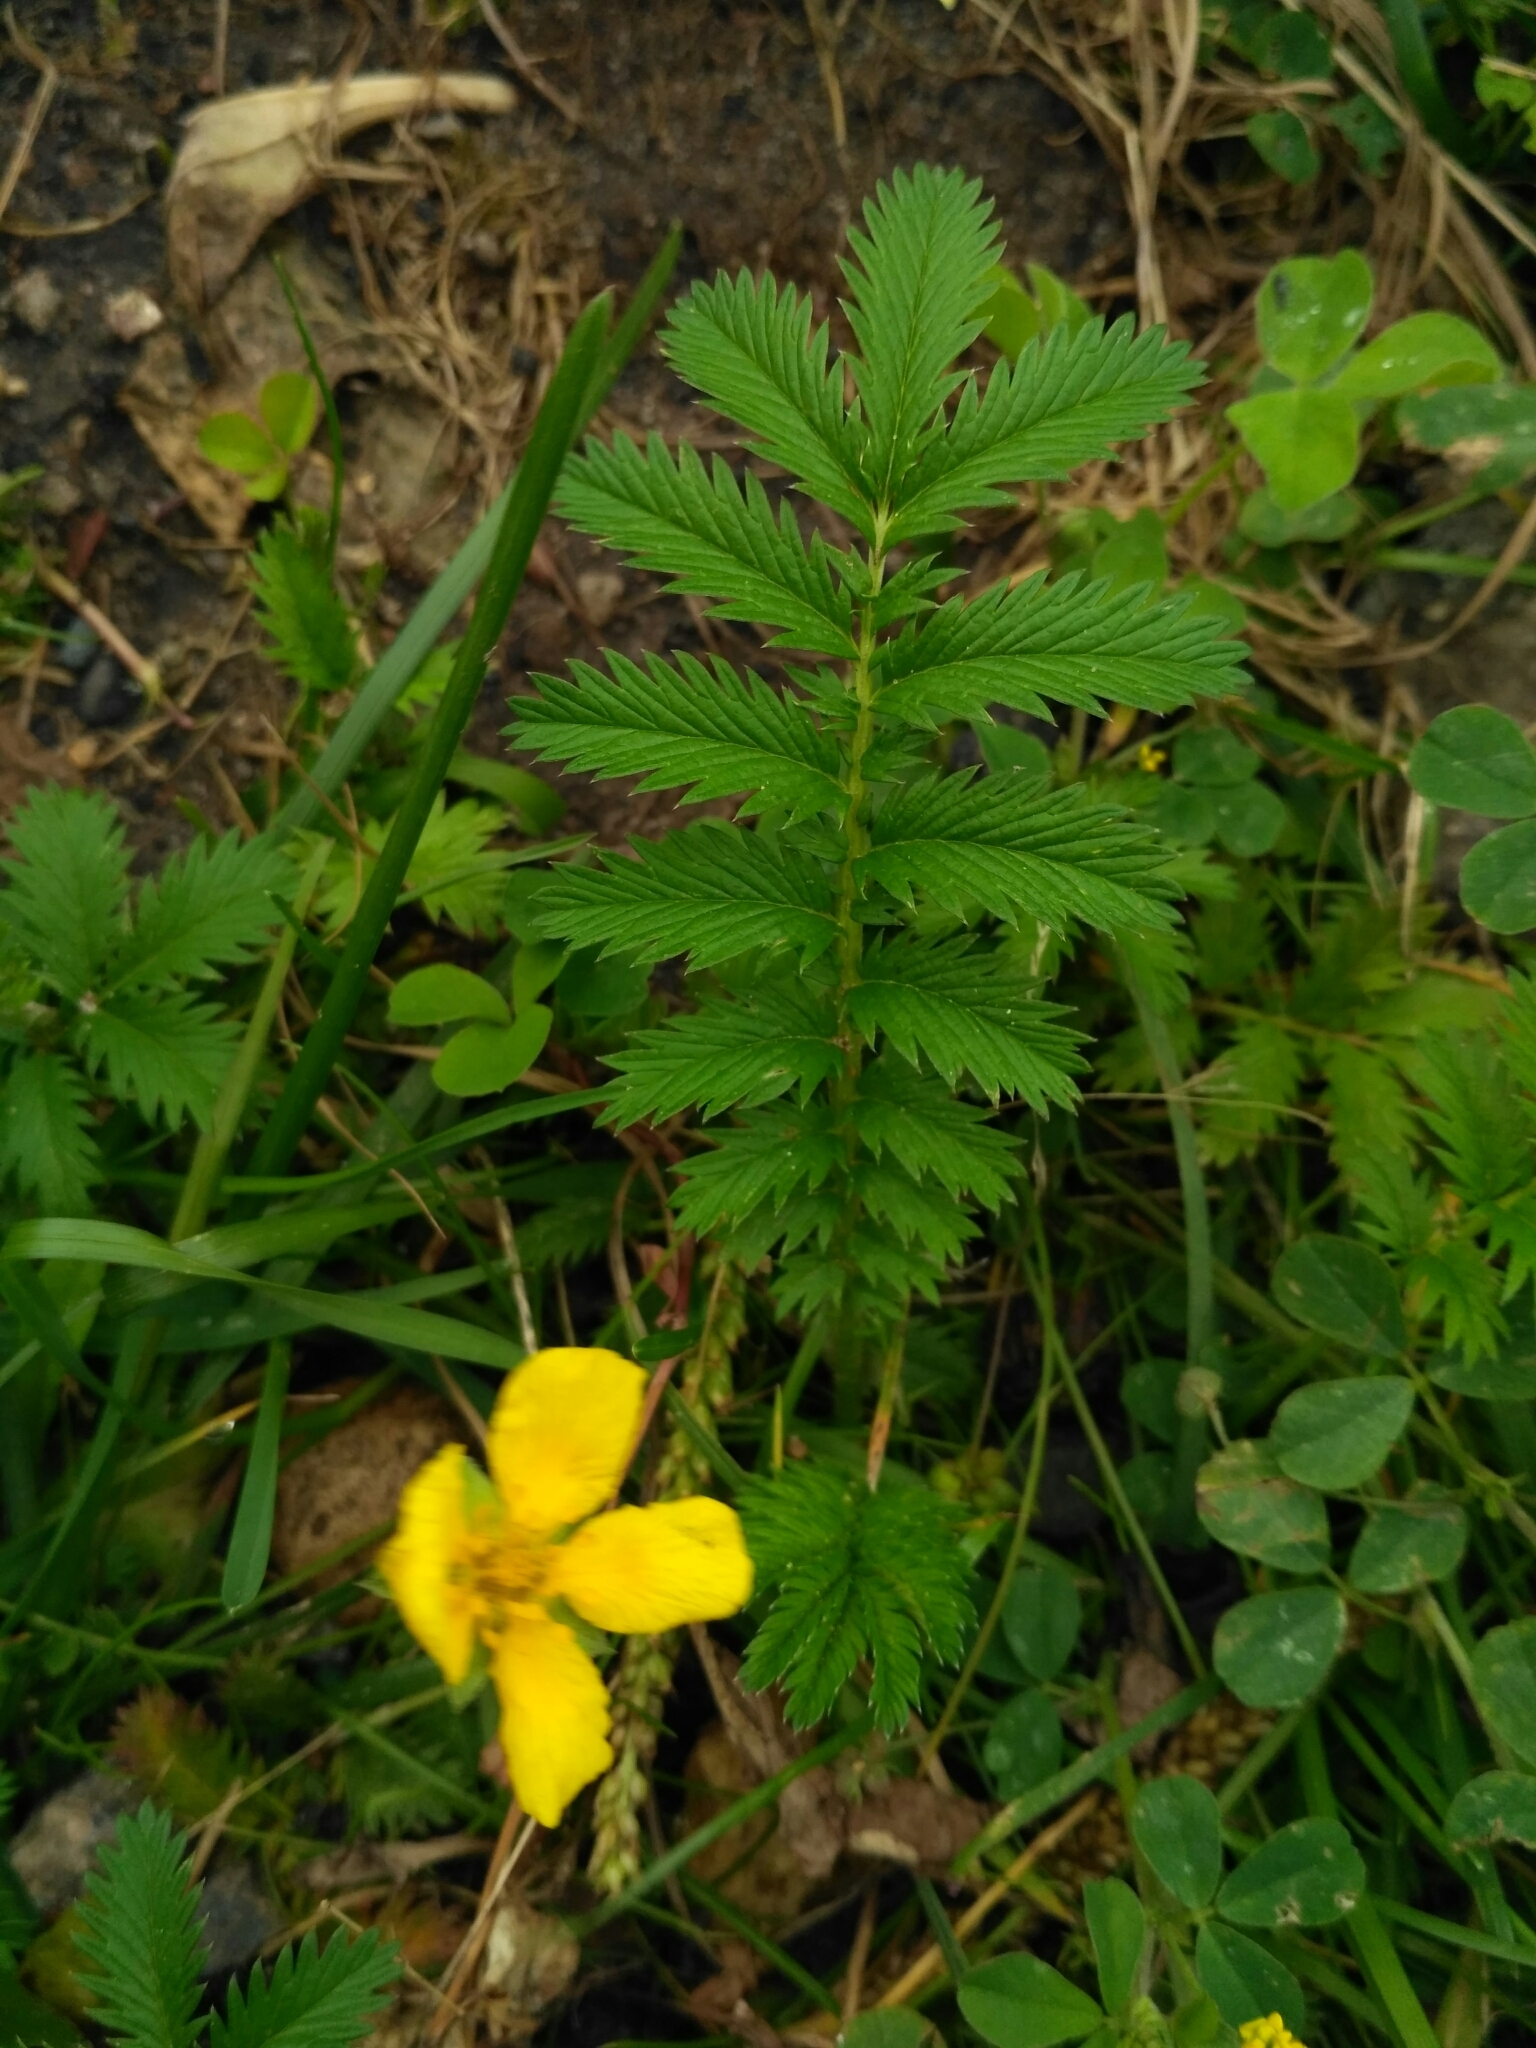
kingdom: Plantae
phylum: Tracheophyta
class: Magnoliopsida
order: Rosales
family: Rosaceae
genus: Argentina
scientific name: Argentina anserina
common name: Common silverweed
